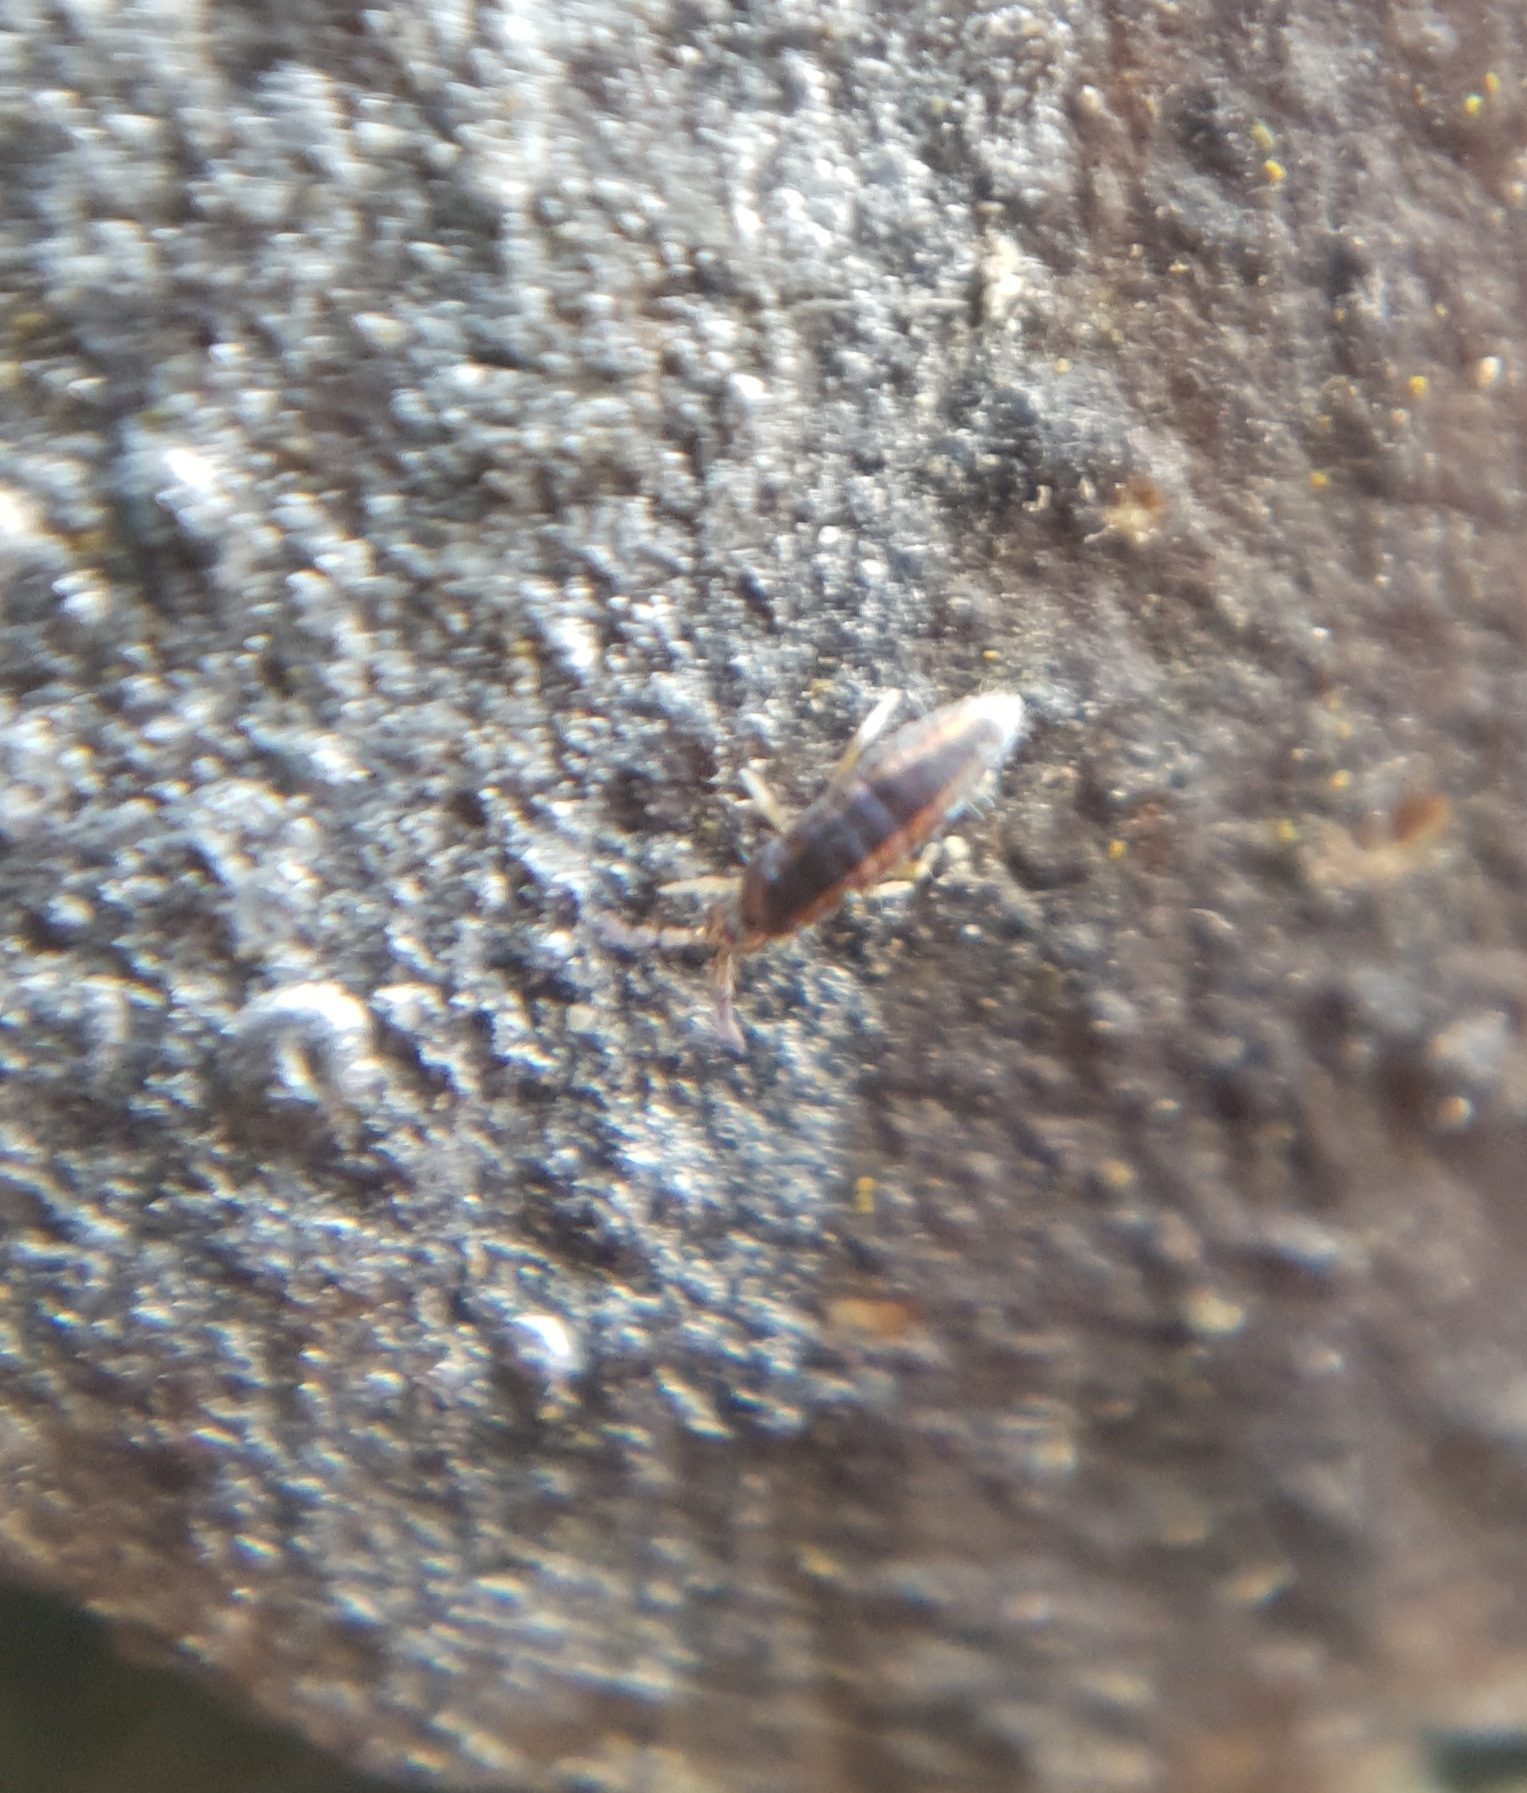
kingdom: Animalia
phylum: Arthropoda
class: Collembola
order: Entomobryomorpha
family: Entomobryidae
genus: Lepidocyrtus
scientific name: Lepidocyrtus
